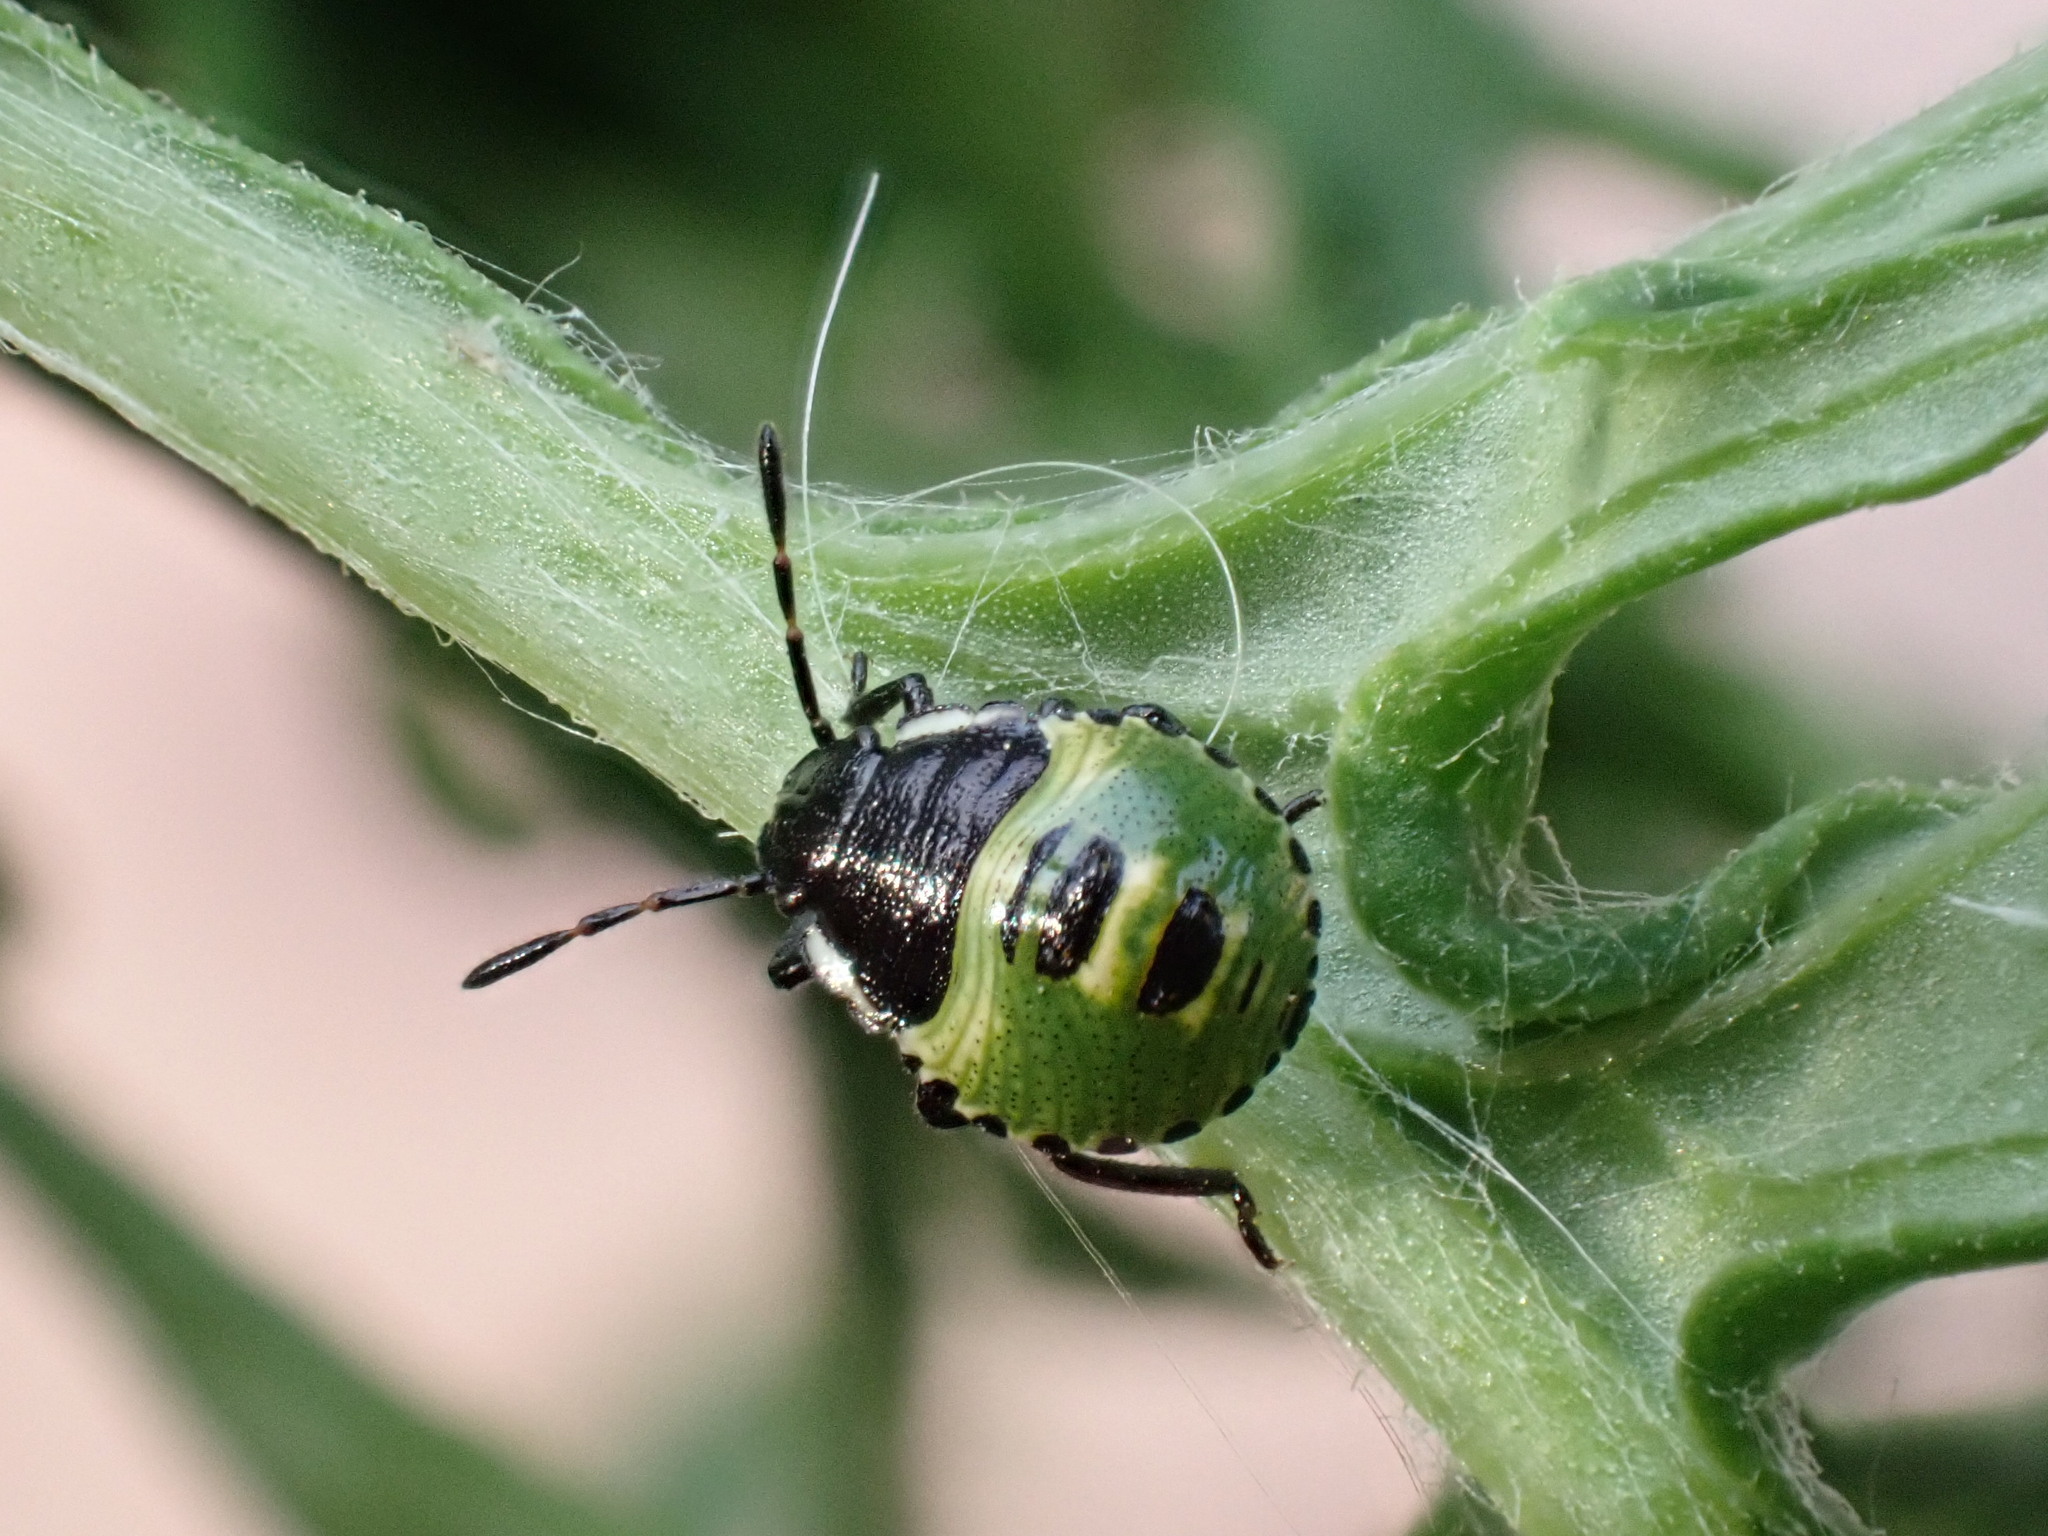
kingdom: Animalia
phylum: Arthropoda
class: Insecta
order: Hemiptera
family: Pentatomidae
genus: Palomena
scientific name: Palomena prasina
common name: Green shieldbug
